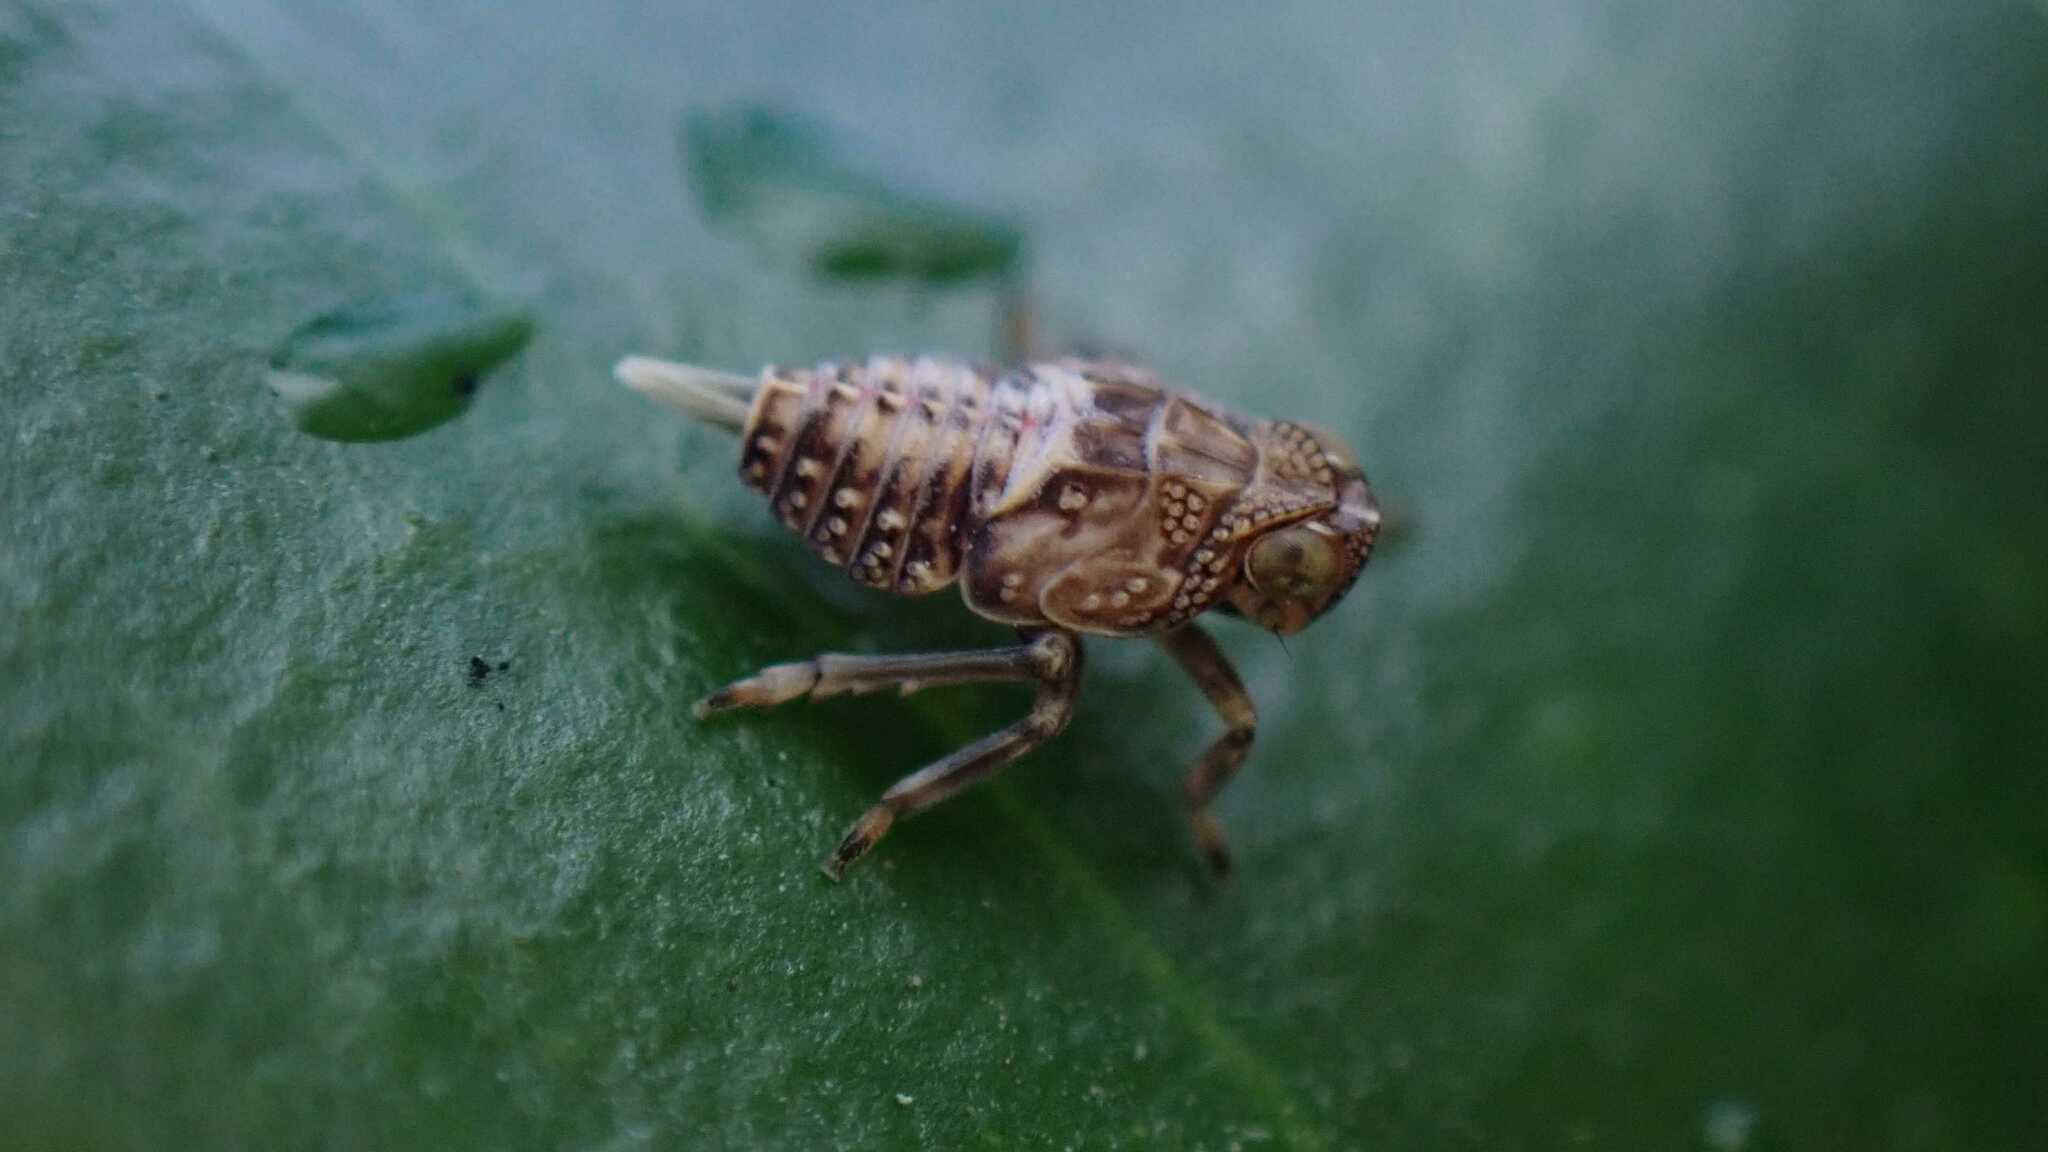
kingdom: Animalia
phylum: Arthropoda
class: Insecta
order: Hemiptera
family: Issidae
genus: Issus
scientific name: Issus coleoptratus
